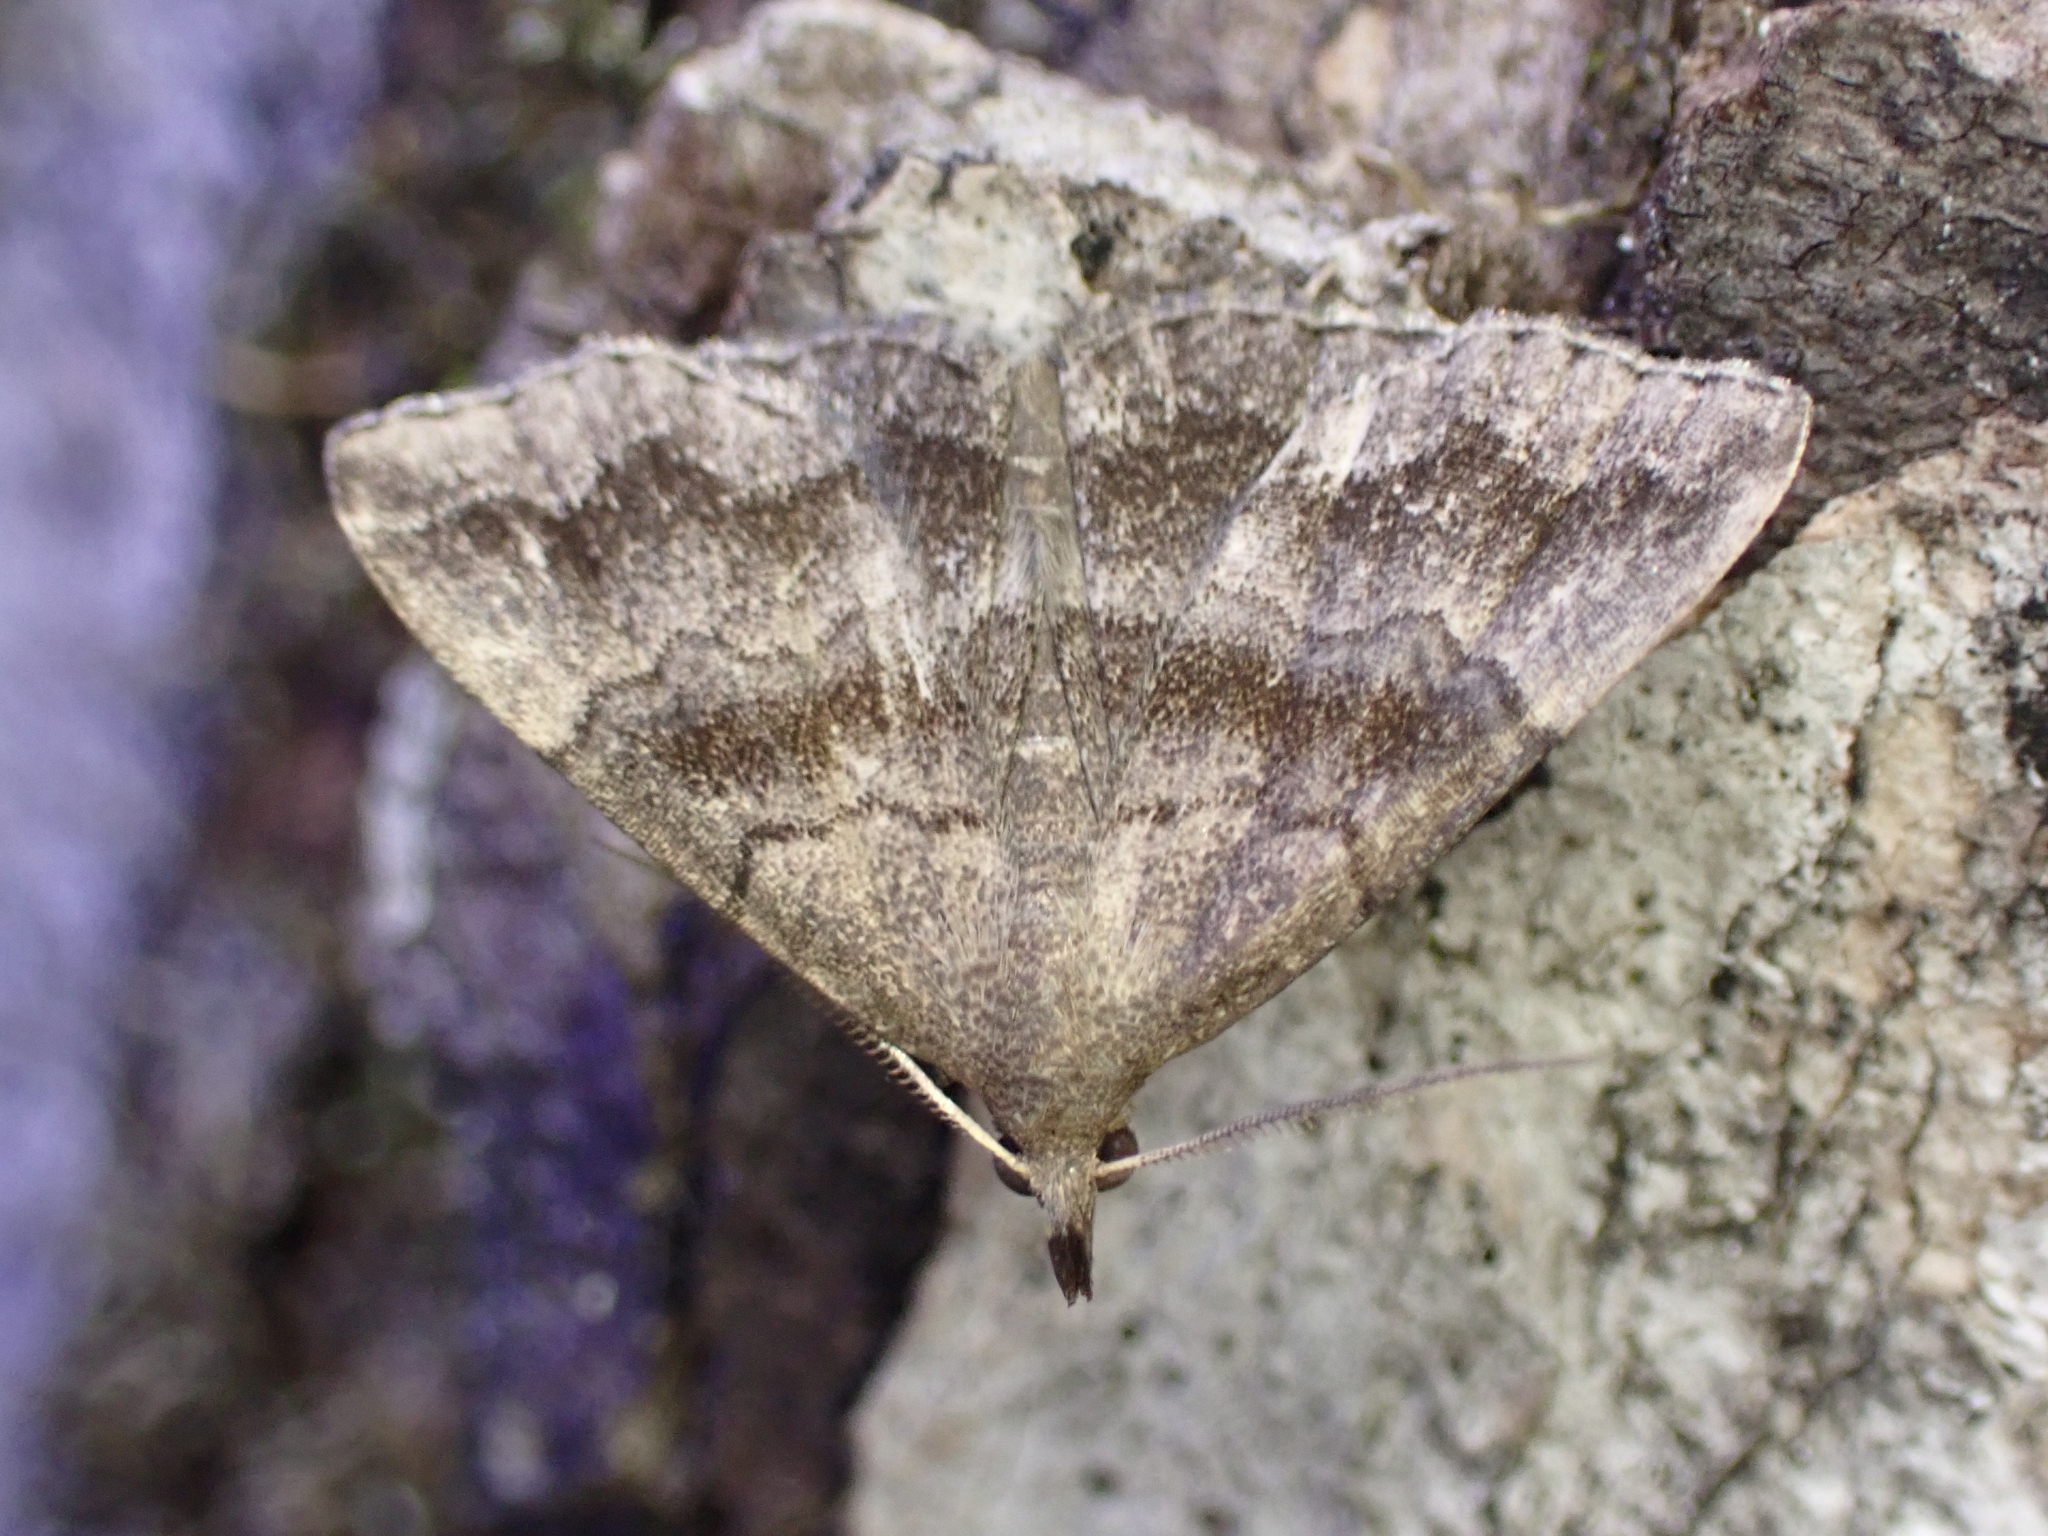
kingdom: Animalia
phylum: Arthropoda
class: Insecta
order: Lepidoptera
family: Erebidae
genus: Phalaenostola
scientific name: Phalaenostola larentioides
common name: Black-banded owlet
